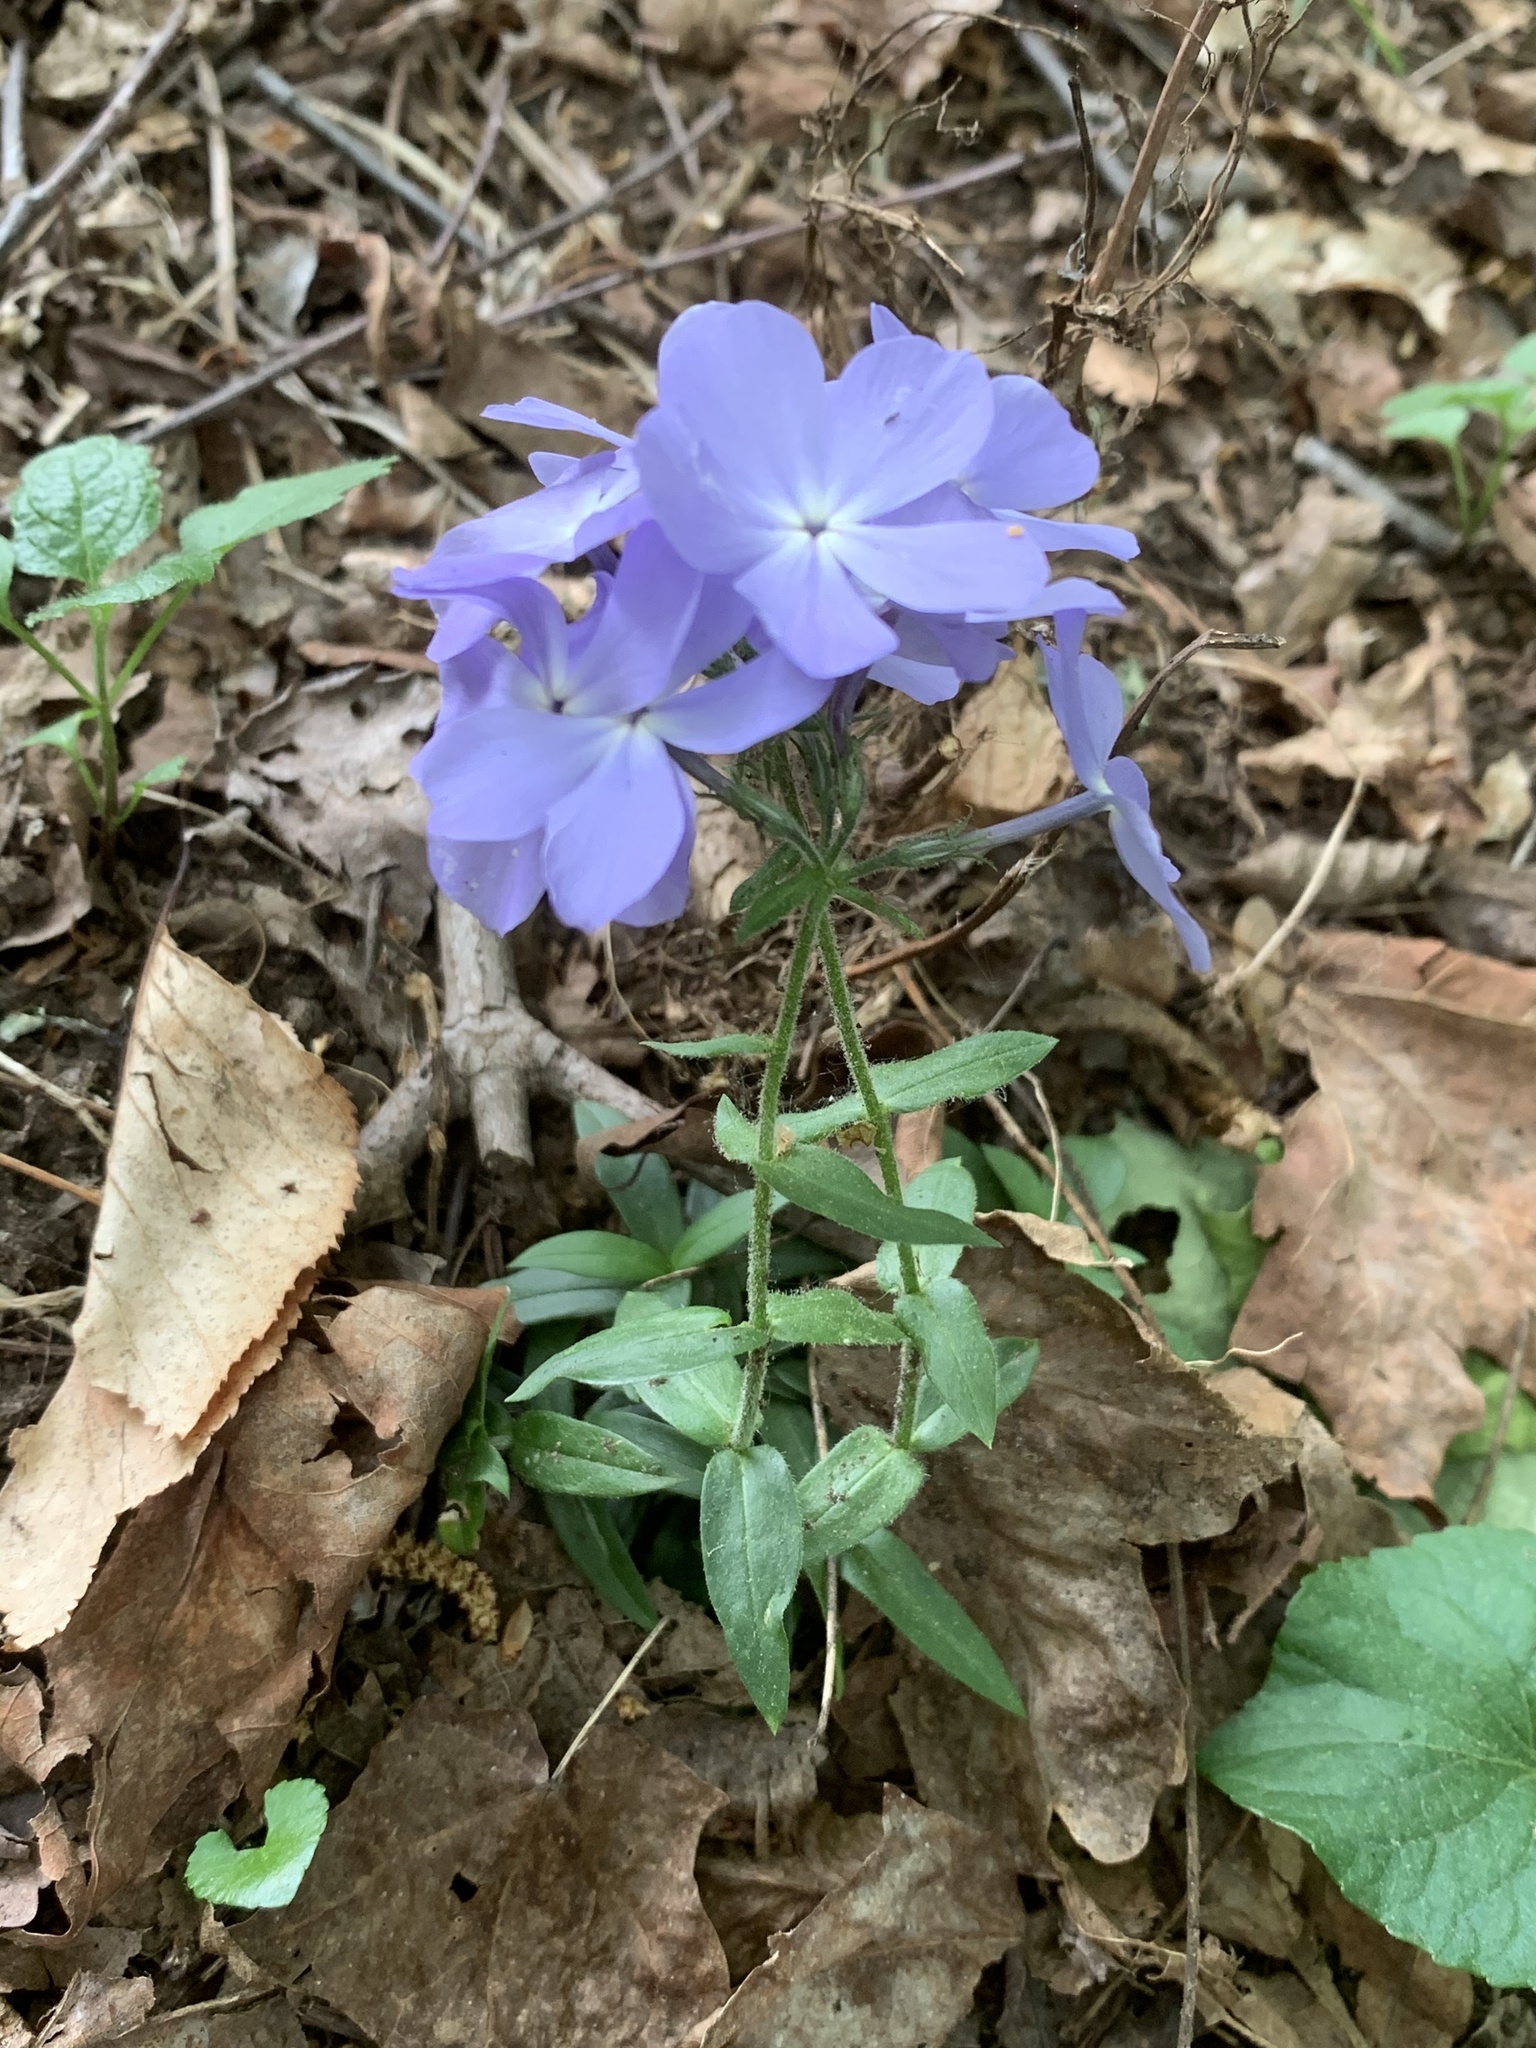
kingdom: Plantae
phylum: Tracheophyta
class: Magnoliopsida
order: Ericales
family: Polemoniaceae
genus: Phlox
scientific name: Phlox divaricata
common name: Blue phlox
